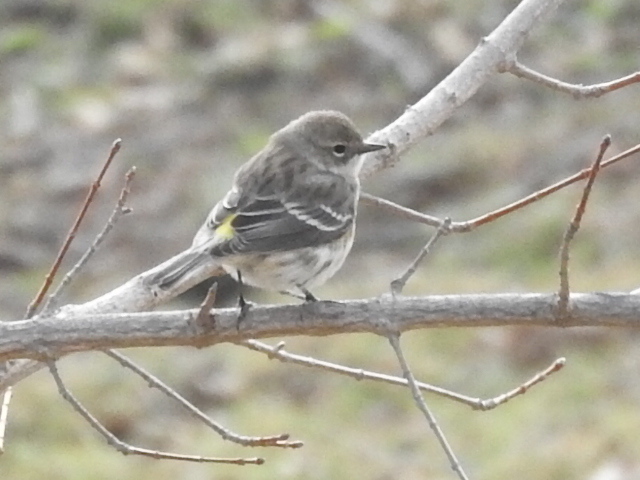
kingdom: Animalia
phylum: Chordata
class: Aves
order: Passeriformes
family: Parulidae
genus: Setophaga
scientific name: Setophaga coronata
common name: Myrtle warbler
